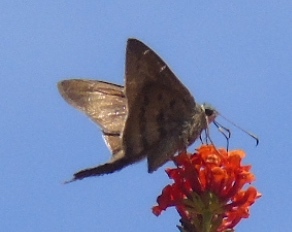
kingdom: Animalia
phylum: Arthropoda
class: Insecta
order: Lepidoptera
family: Hesperiidae
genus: Urbanus
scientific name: Urbanus teleus
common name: Teleus longtail
